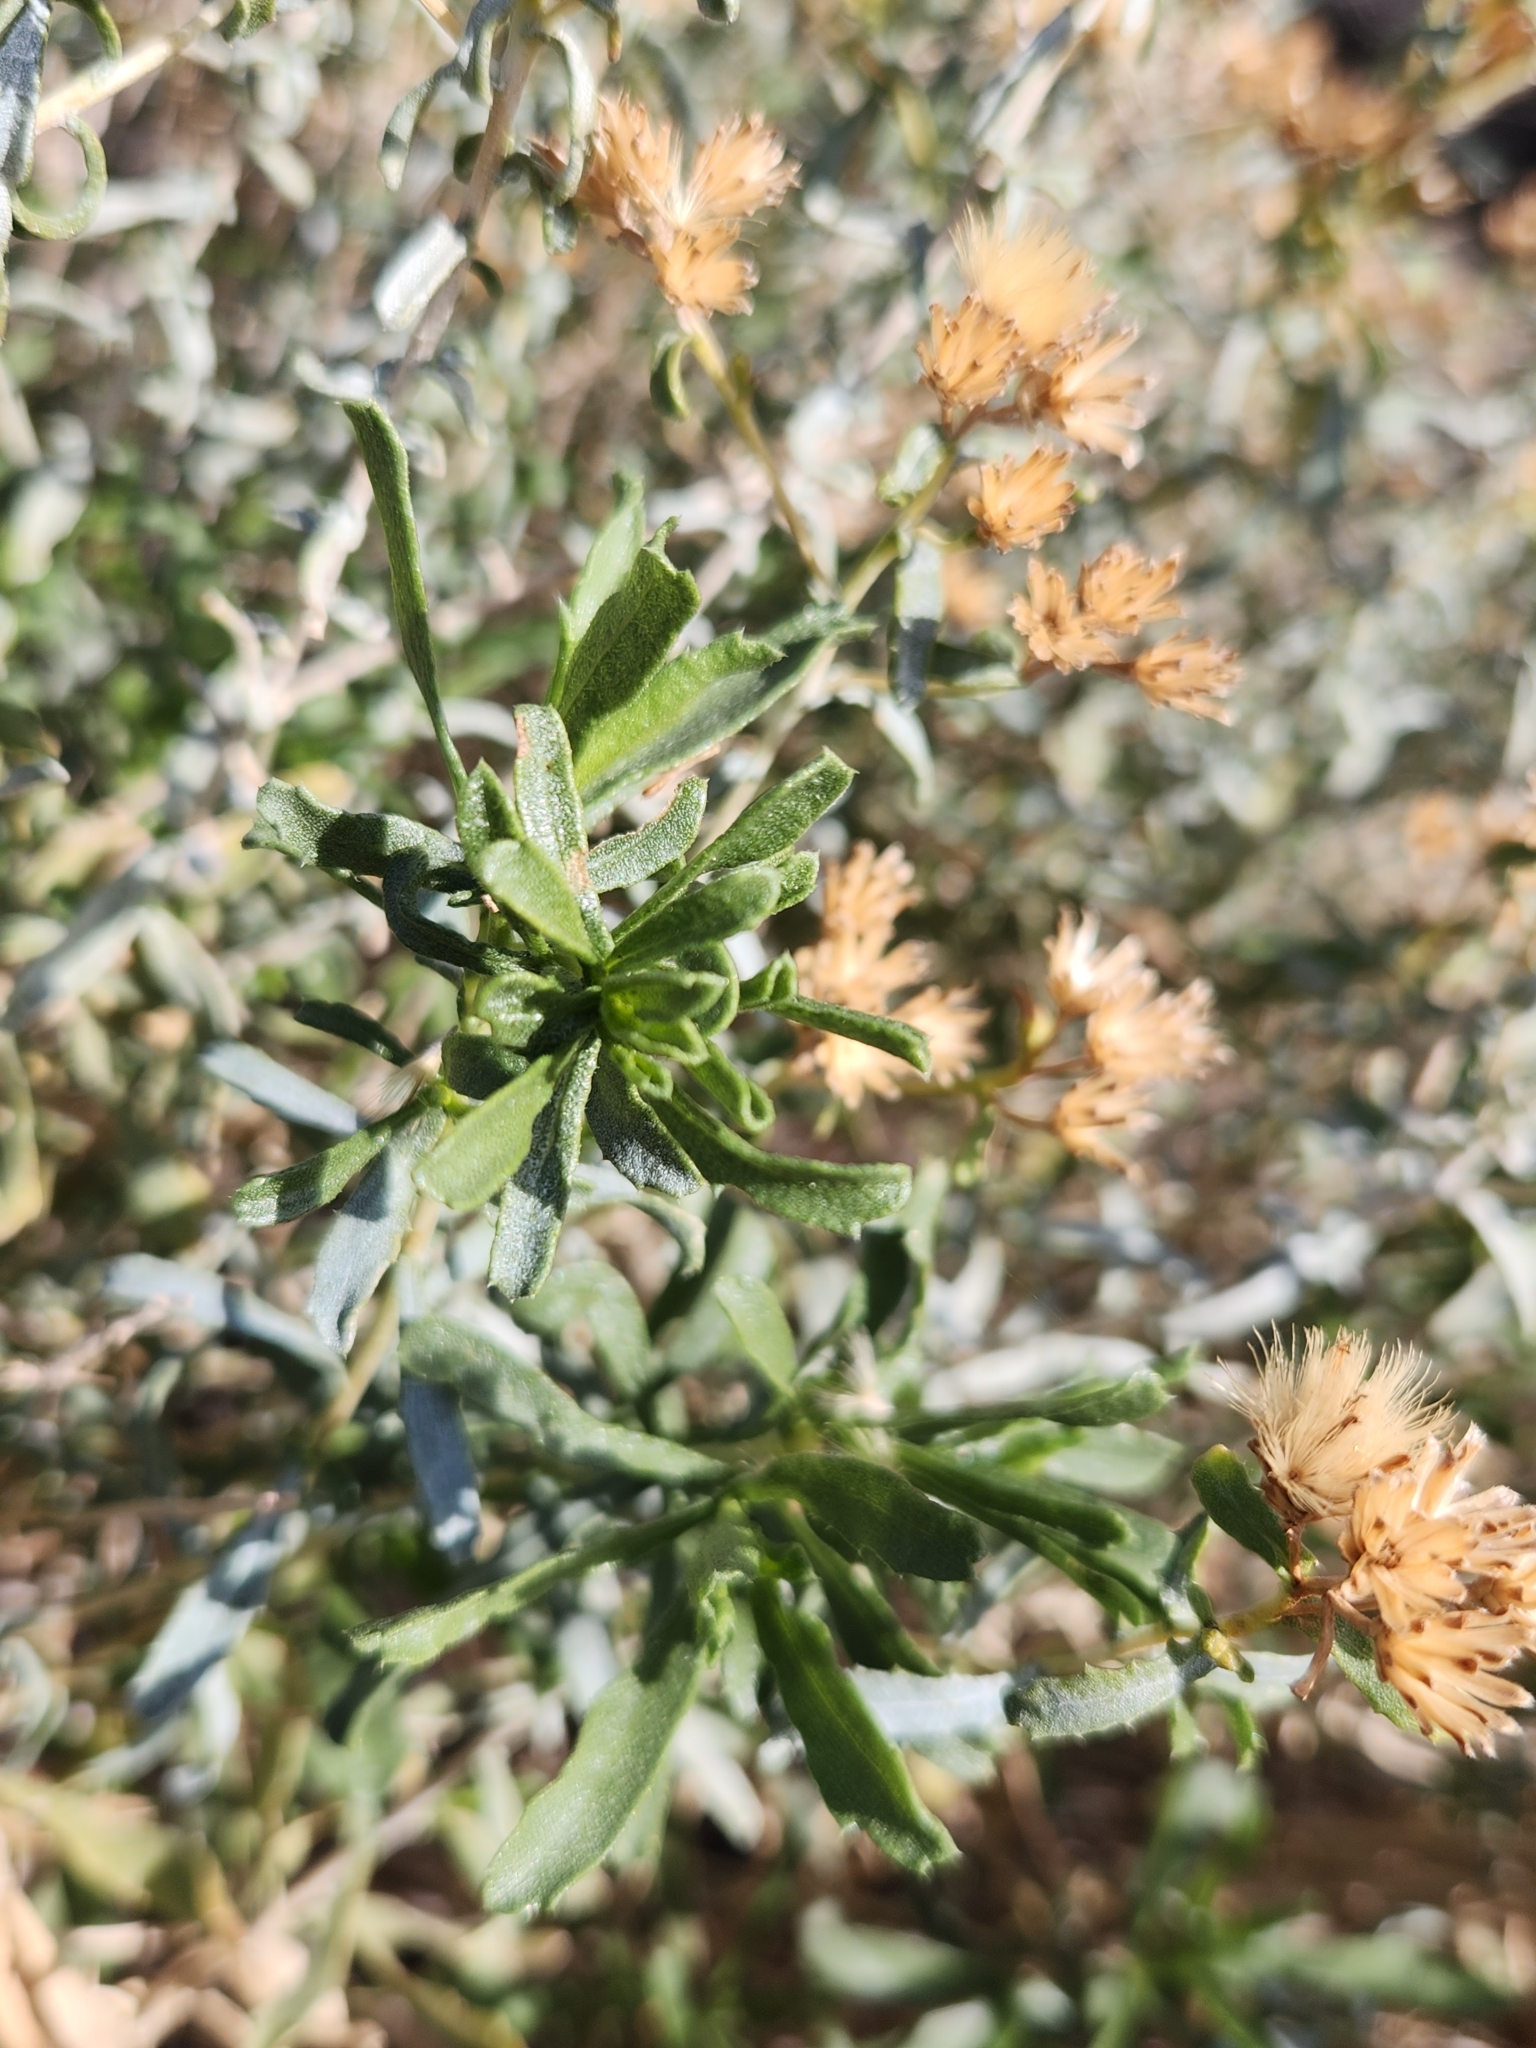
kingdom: Plantae
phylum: Tracheophyta
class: Magnoliopsida
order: Asterales
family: Asteraceae
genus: Isocoma
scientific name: Isocoma acradenia
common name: Alkali jimmyweed
